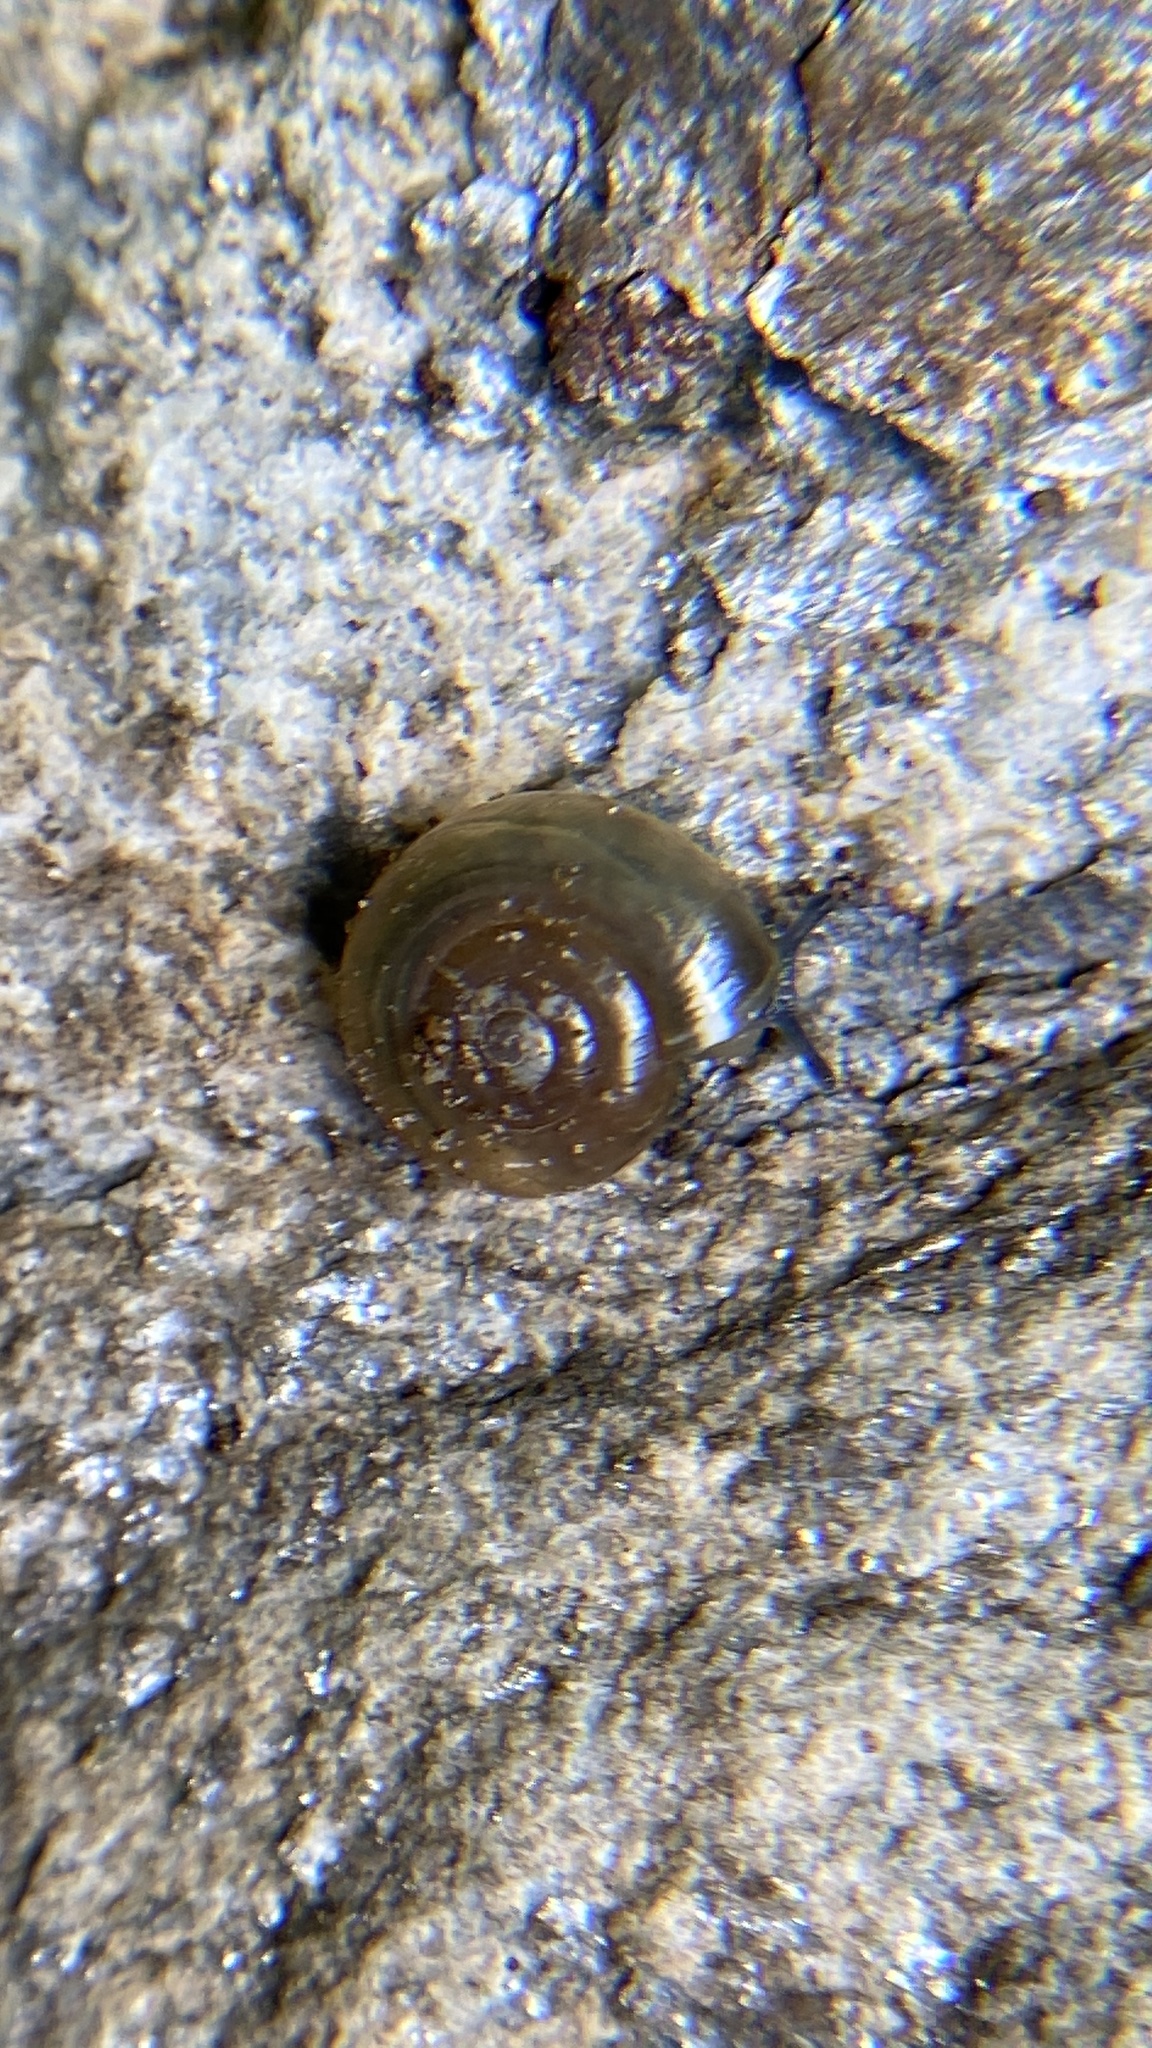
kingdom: Animalia
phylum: Mollusca
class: Gastropoda
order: Stylommatophora
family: Oxychilidae
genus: Oxychilus
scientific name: Oxychilus draparnaudi
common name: Draparnaud's glass snail
